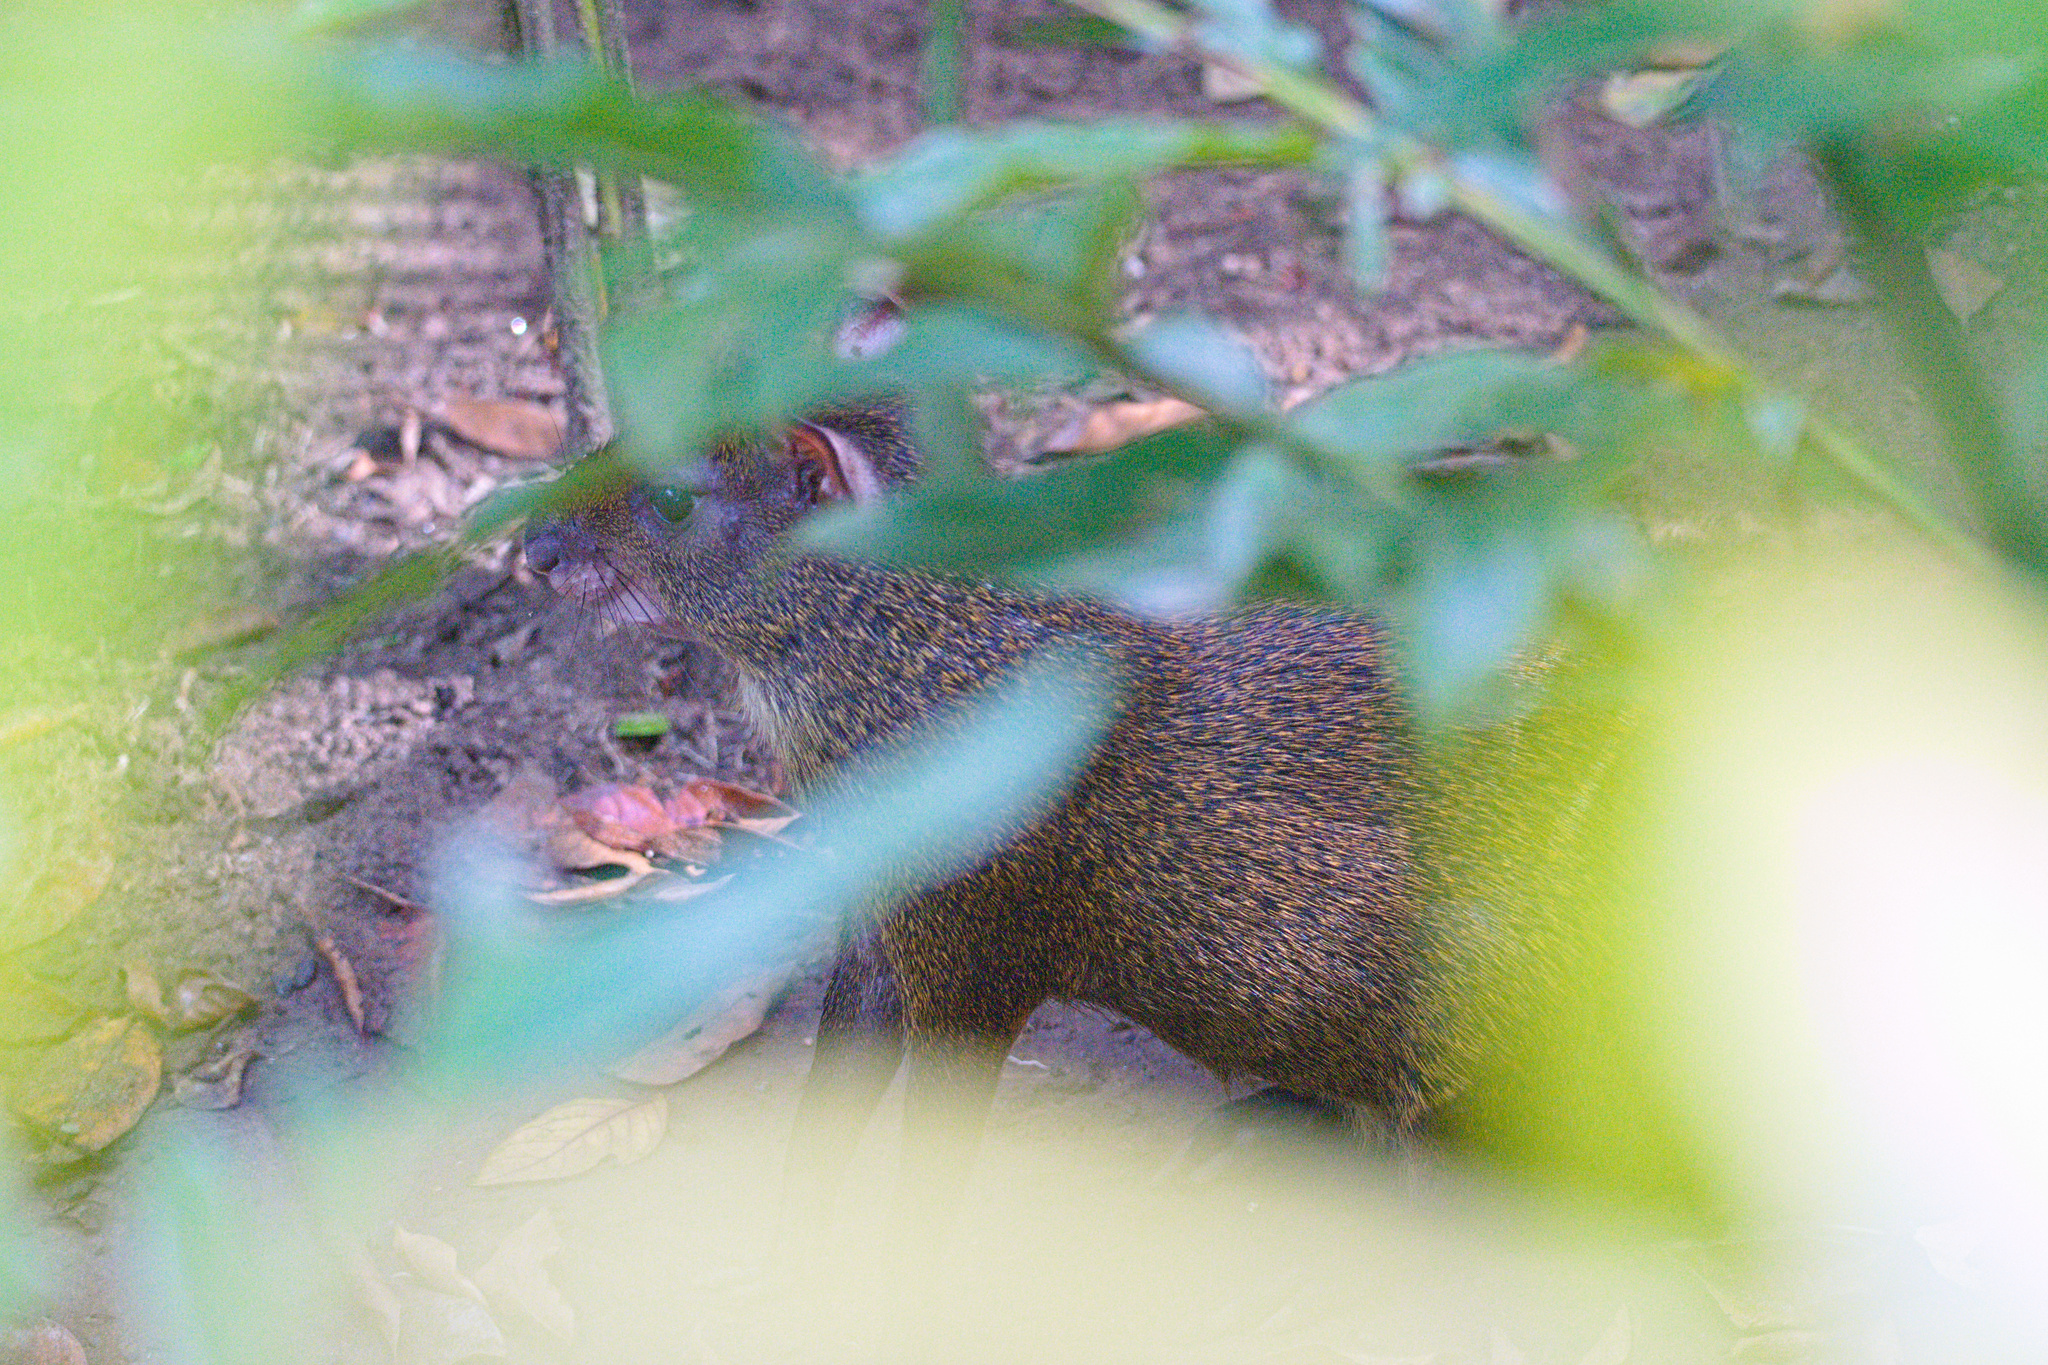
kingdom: Animalia
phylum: Chordata
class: Mammalia
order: Rodentia
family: Dasyproctidae
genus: Dasyprocta
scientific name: Dasyprocta punctata
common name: Central american agouti
